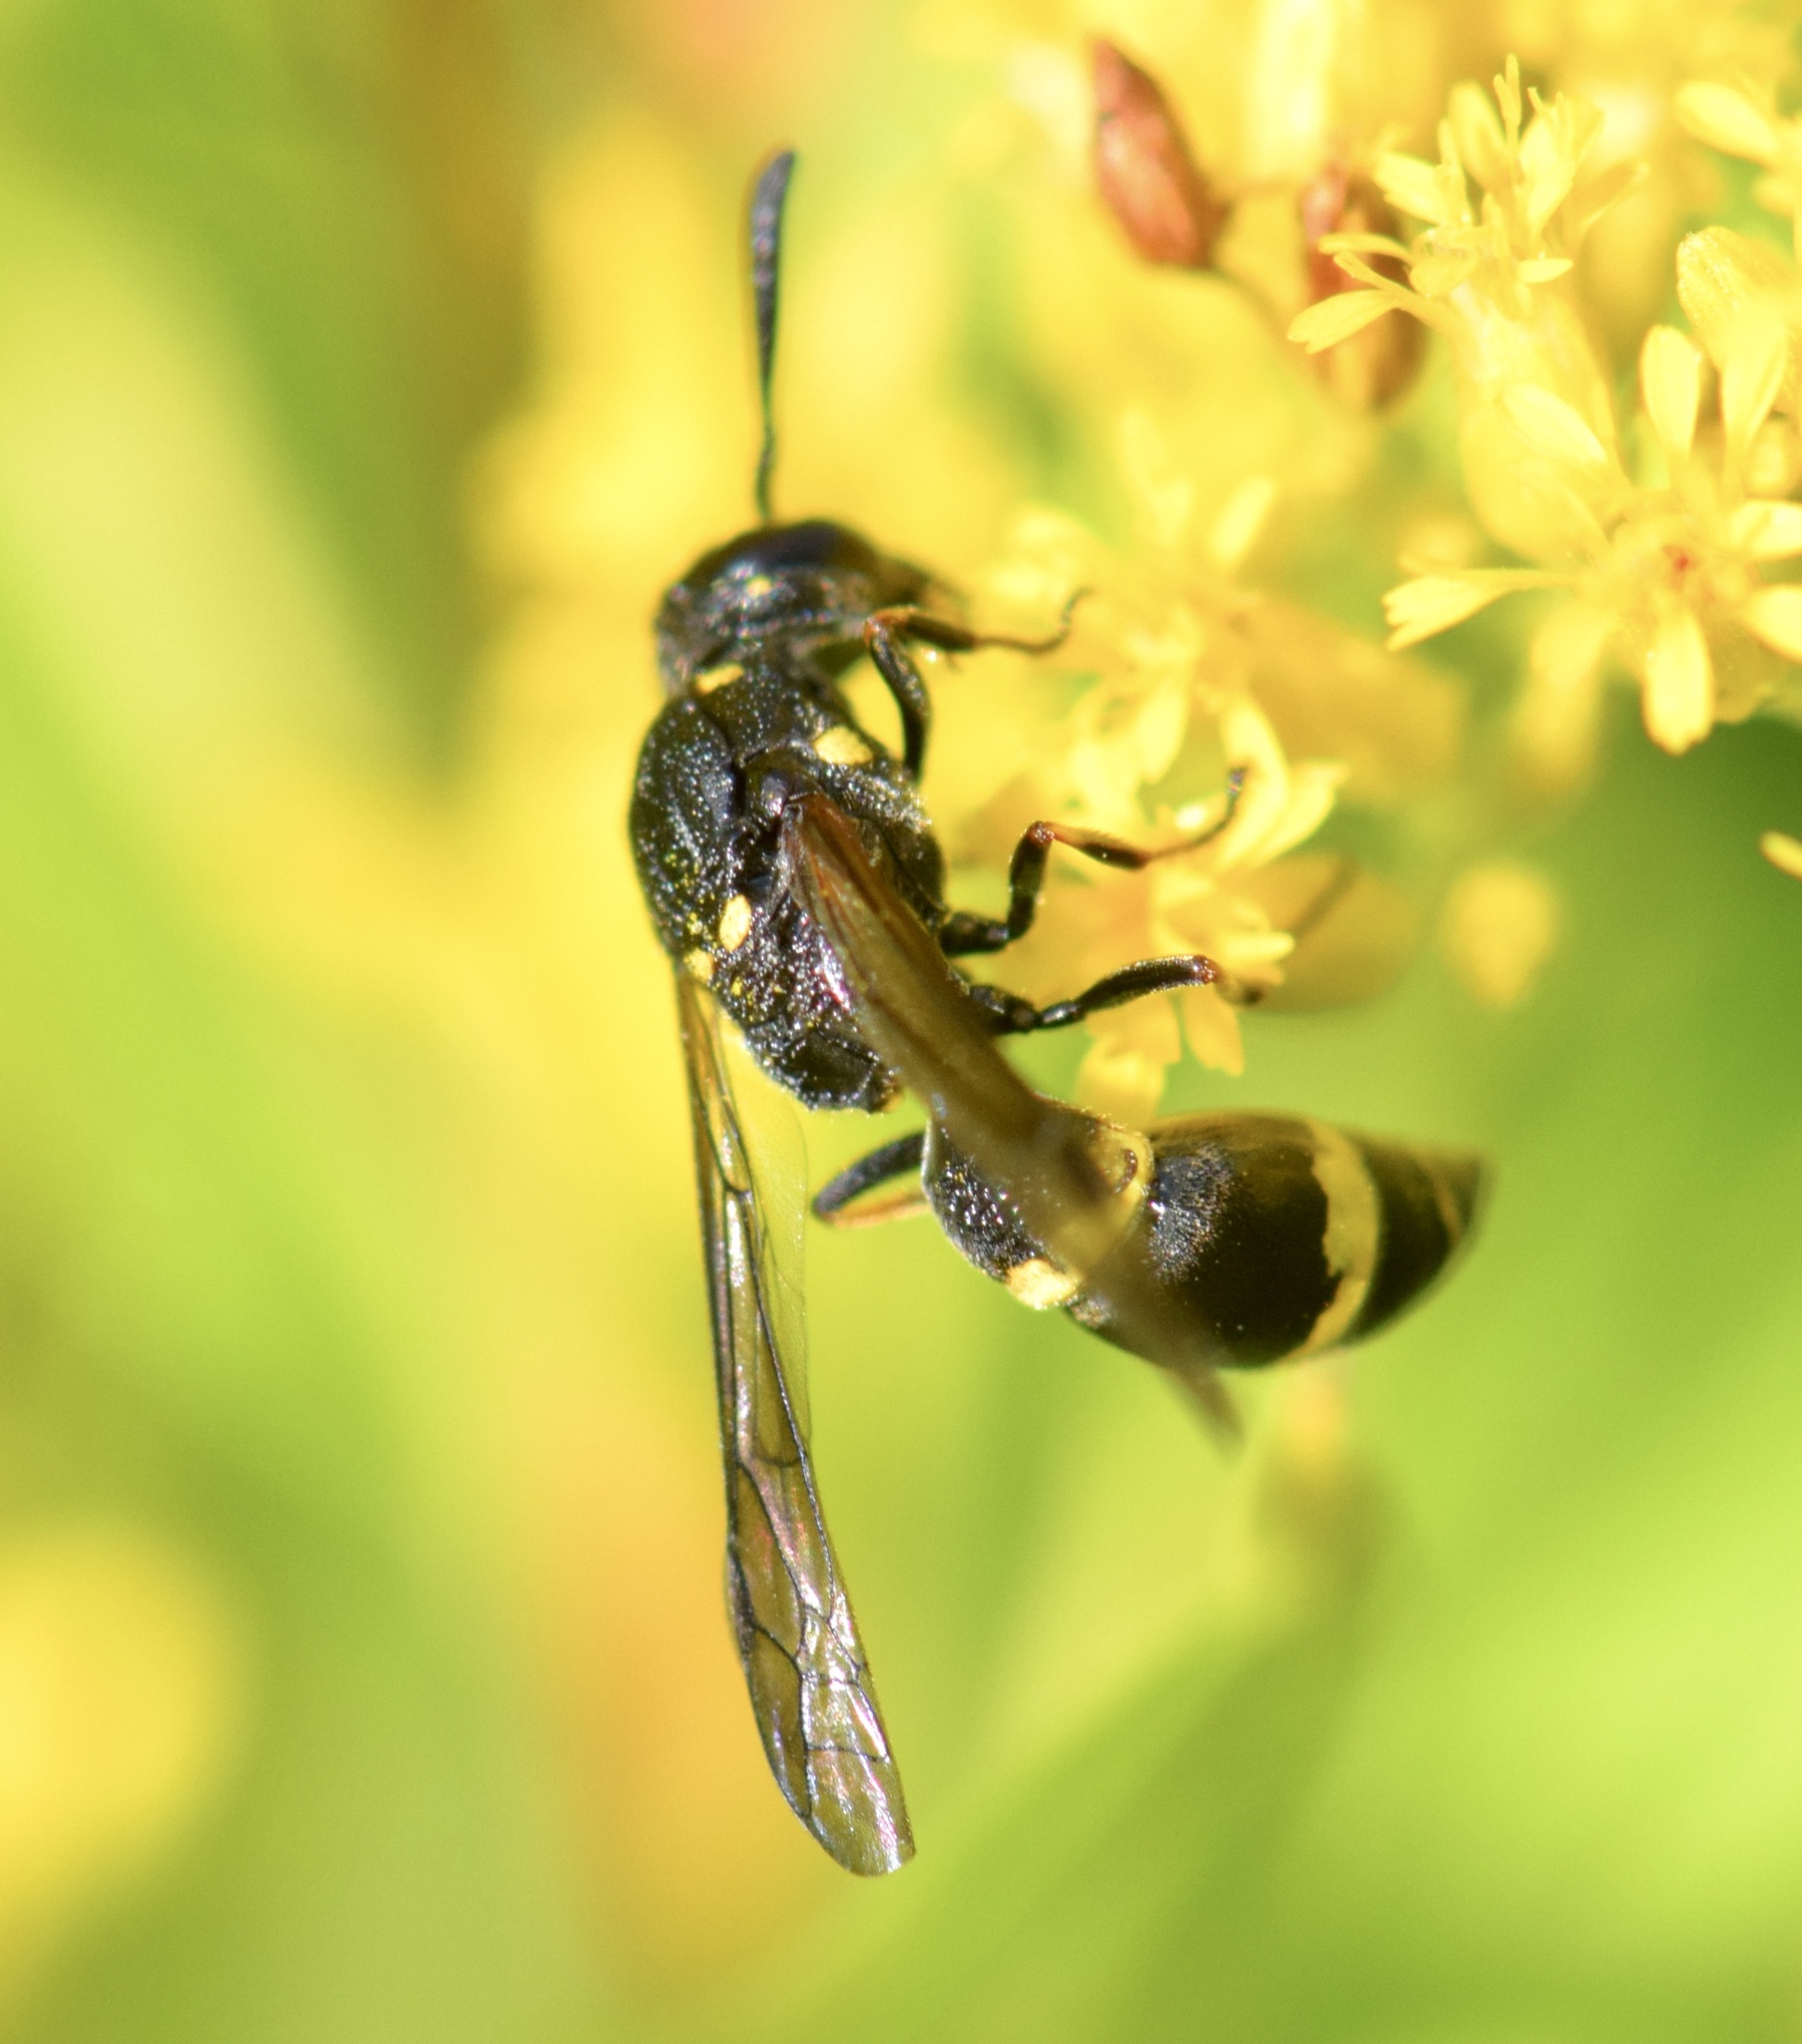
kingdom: Animalia
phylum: Arthropoda
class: Insecta
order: Hymenoptera
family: Eumenidae
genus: Symmorphus
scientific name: Symmorphus
